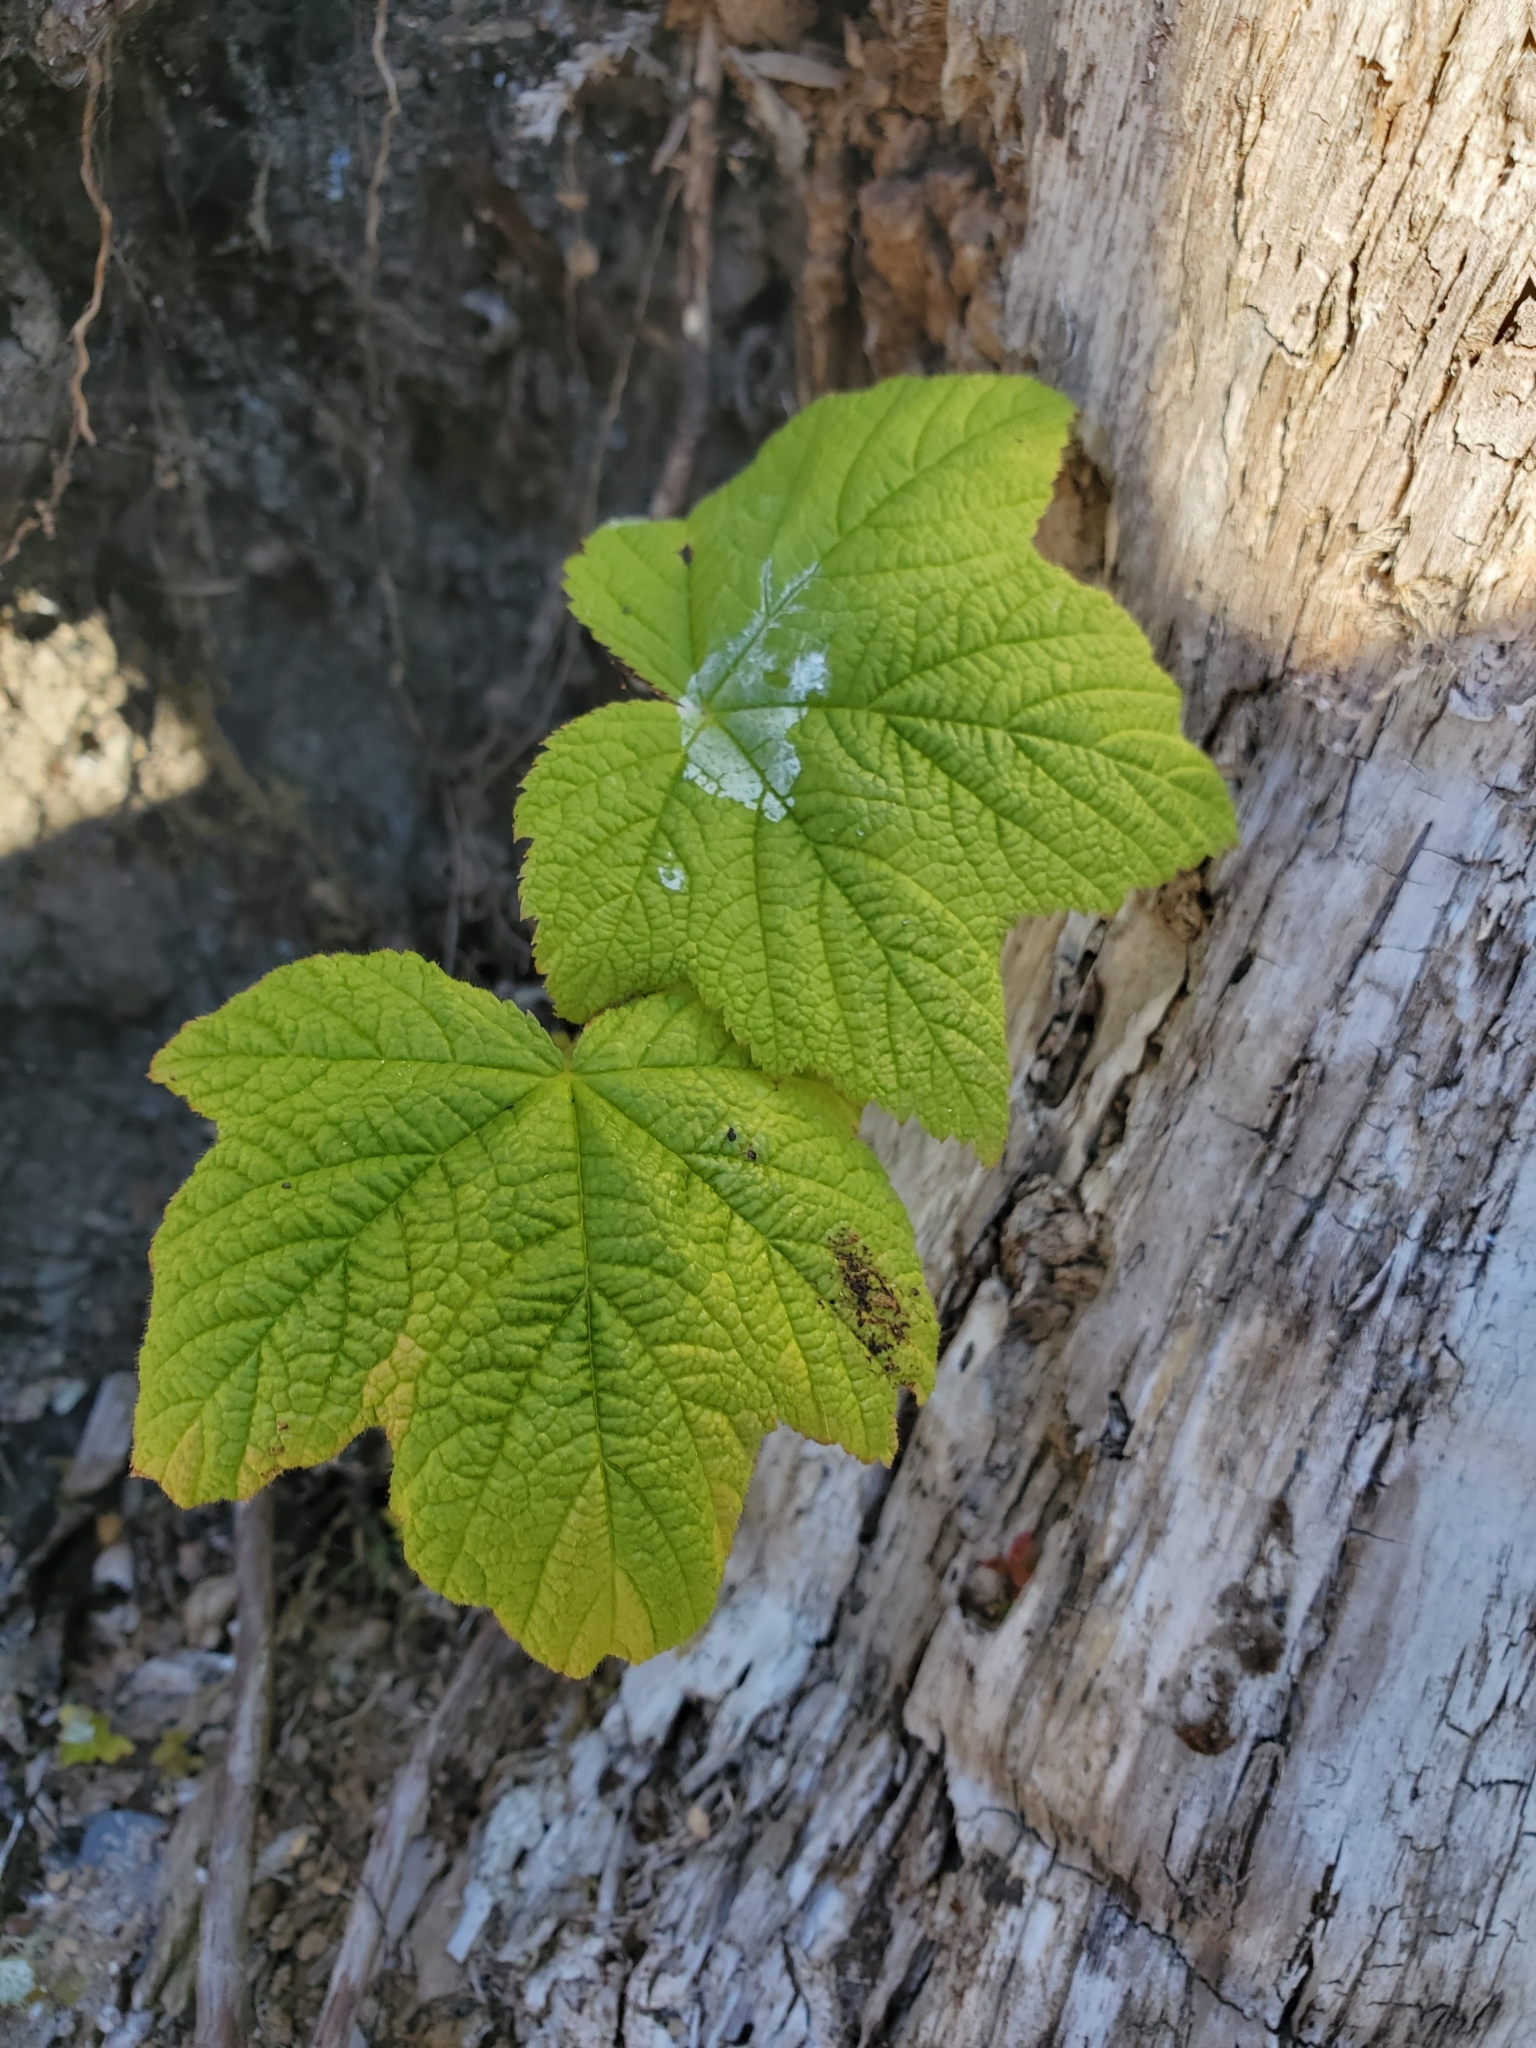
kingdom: Plantae
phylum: Tracheophyta
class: Magnoliopsida
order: Rosales
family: Rosaceae
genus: Rubus
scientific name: Rubus parviflorus
